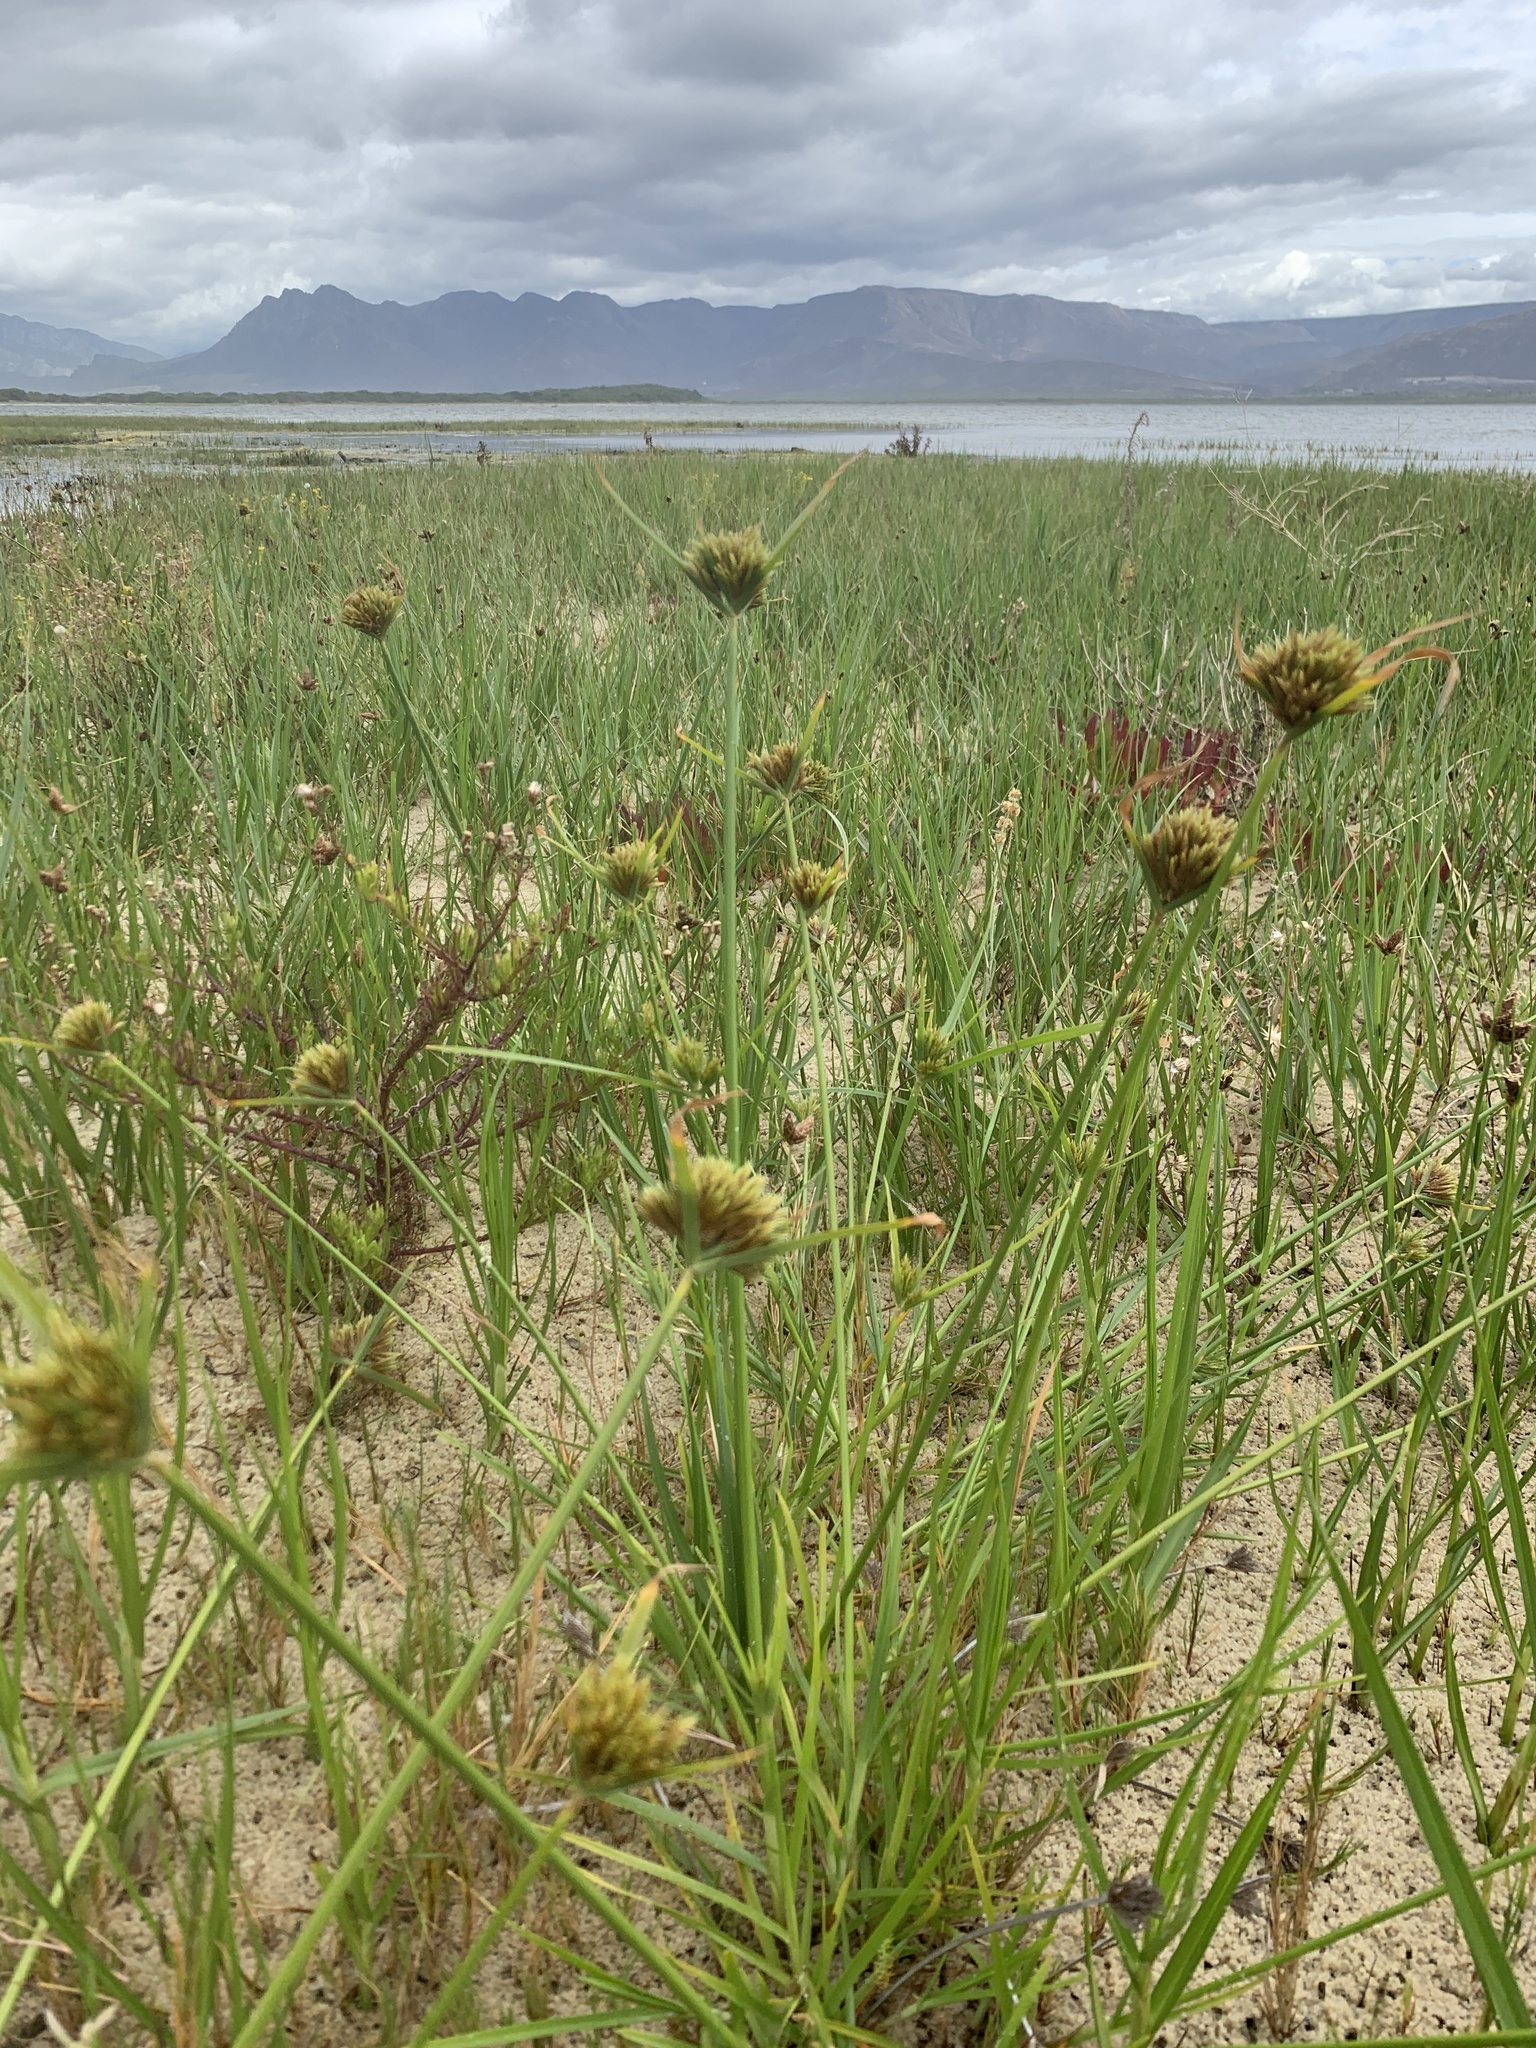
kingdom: Plantae
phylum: Tracheophyta
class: Liliopsida
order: Poales
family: Cyperaceae
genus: Cyperus
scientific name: Cyperus polystachyos
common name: Bunchy flat sedge
